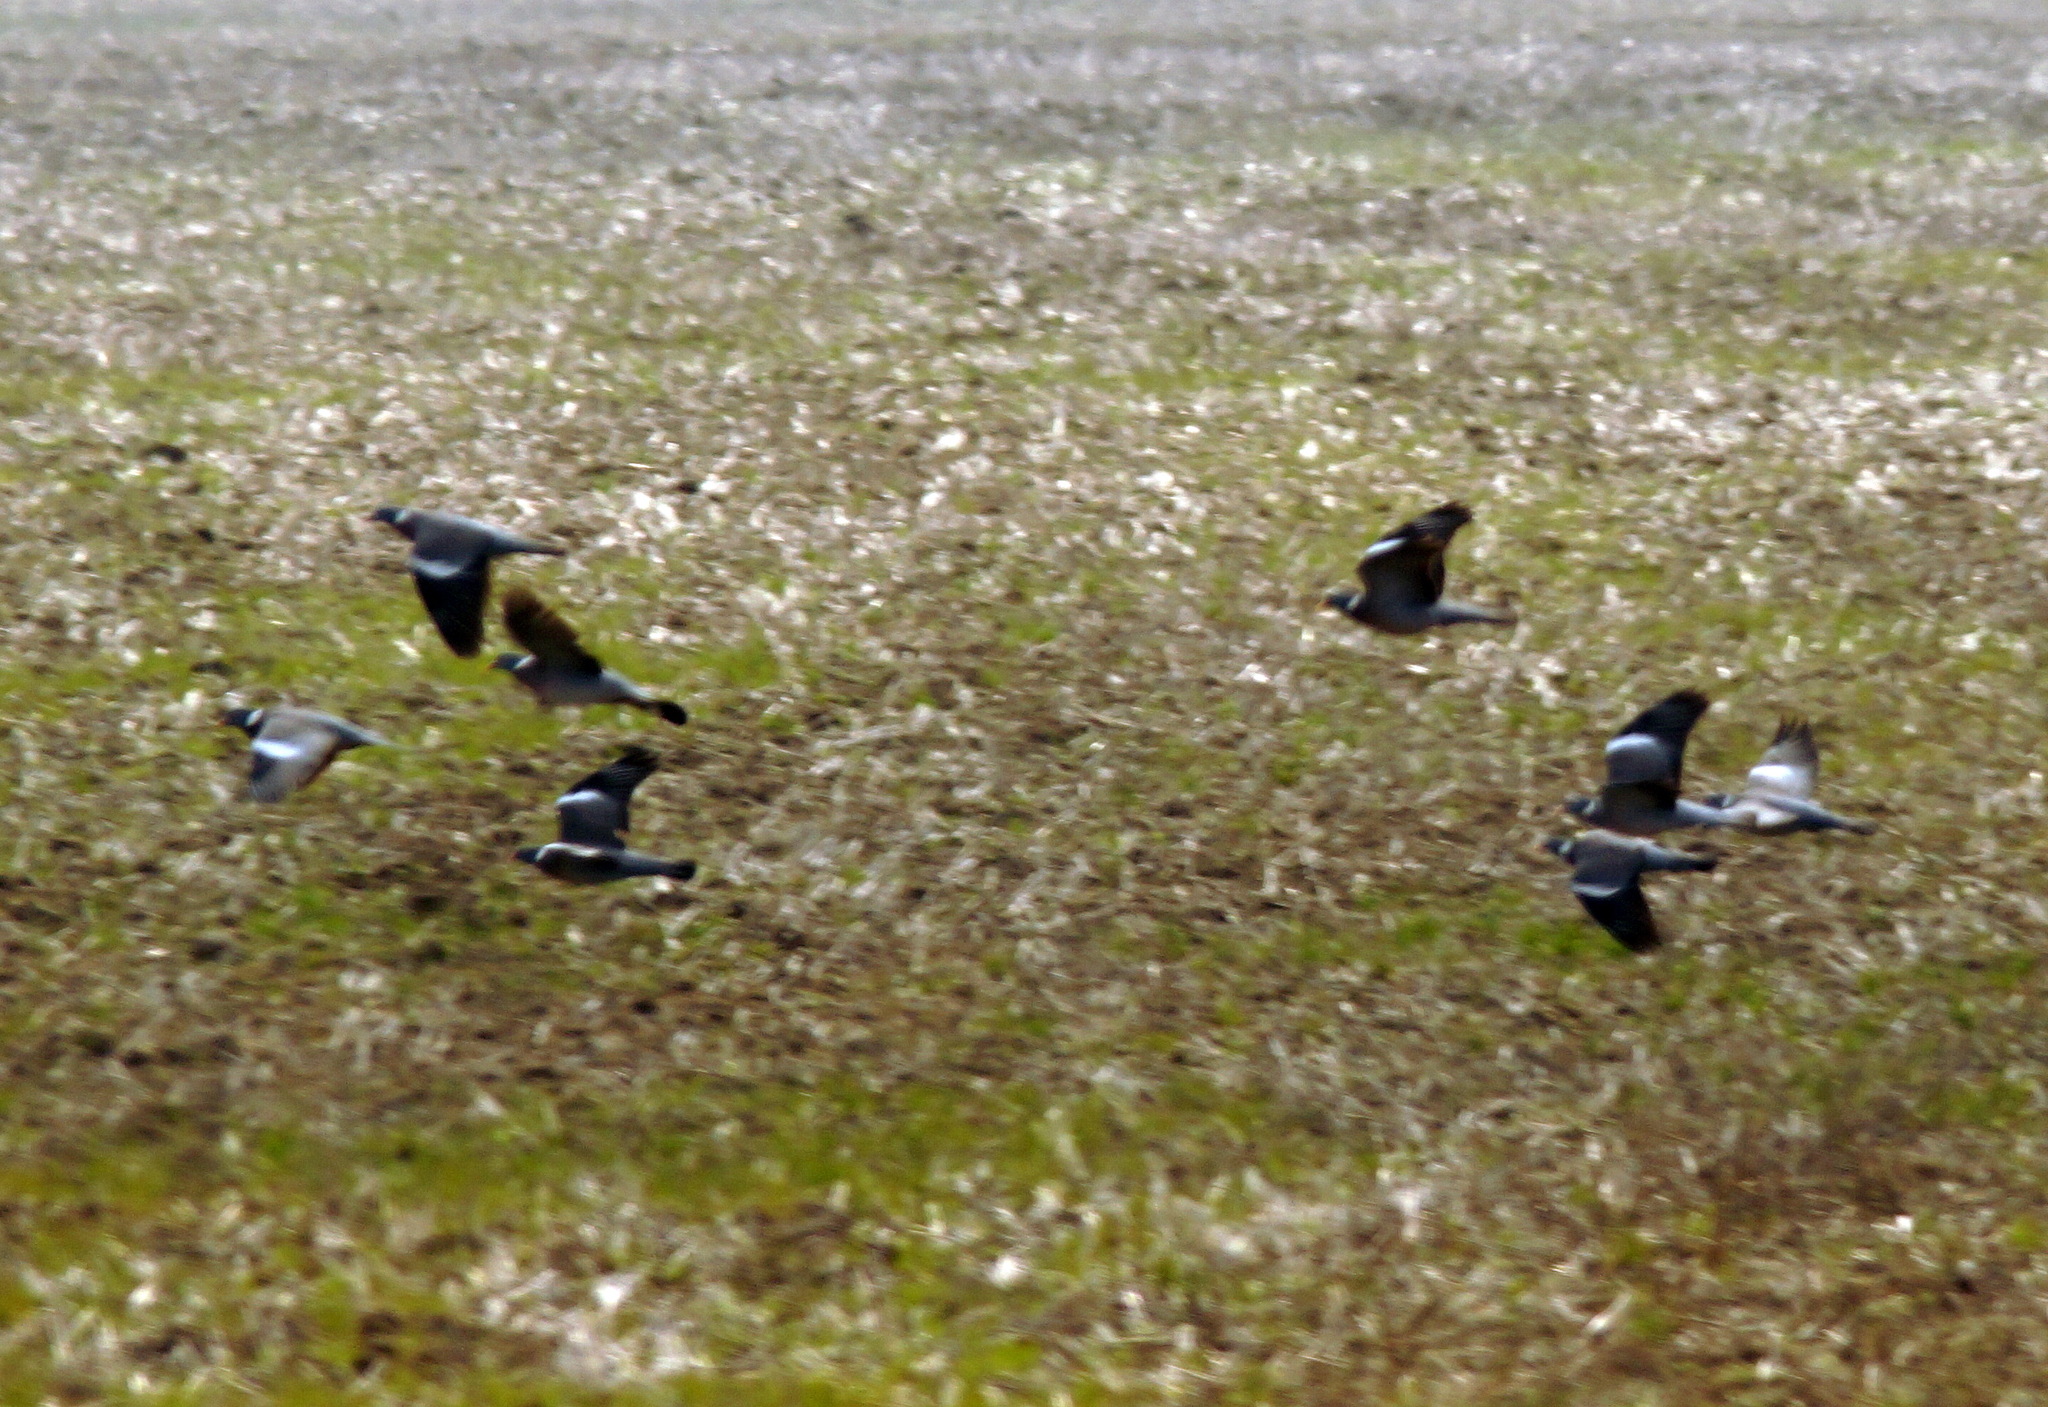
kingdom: Animalia
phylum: Chordata
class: Aves
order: Columbiformes
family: Columbidae
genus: Columba
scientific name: Columba palumbus
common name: Common wood pigeon
